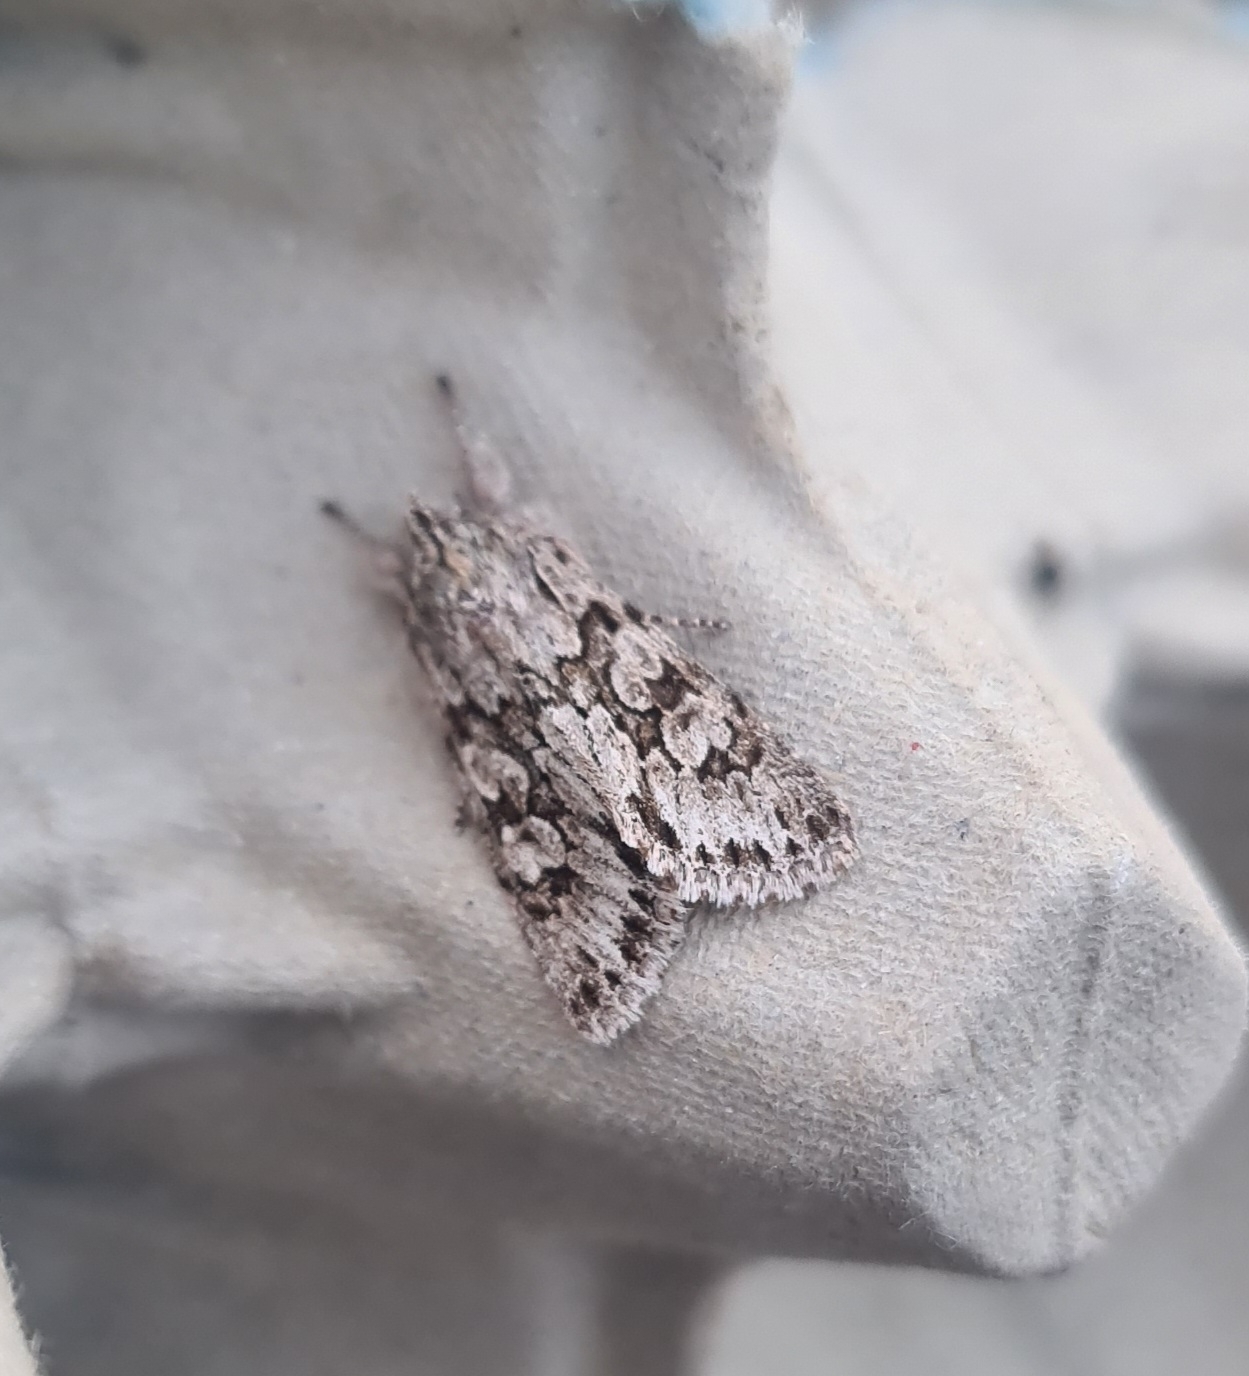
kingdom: Animalia
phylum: Arthropoda
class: Insecta
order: Lepidoptera
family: Noctuidae
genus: Xylocampa
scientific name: Xylocampa areola
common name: Early grey
